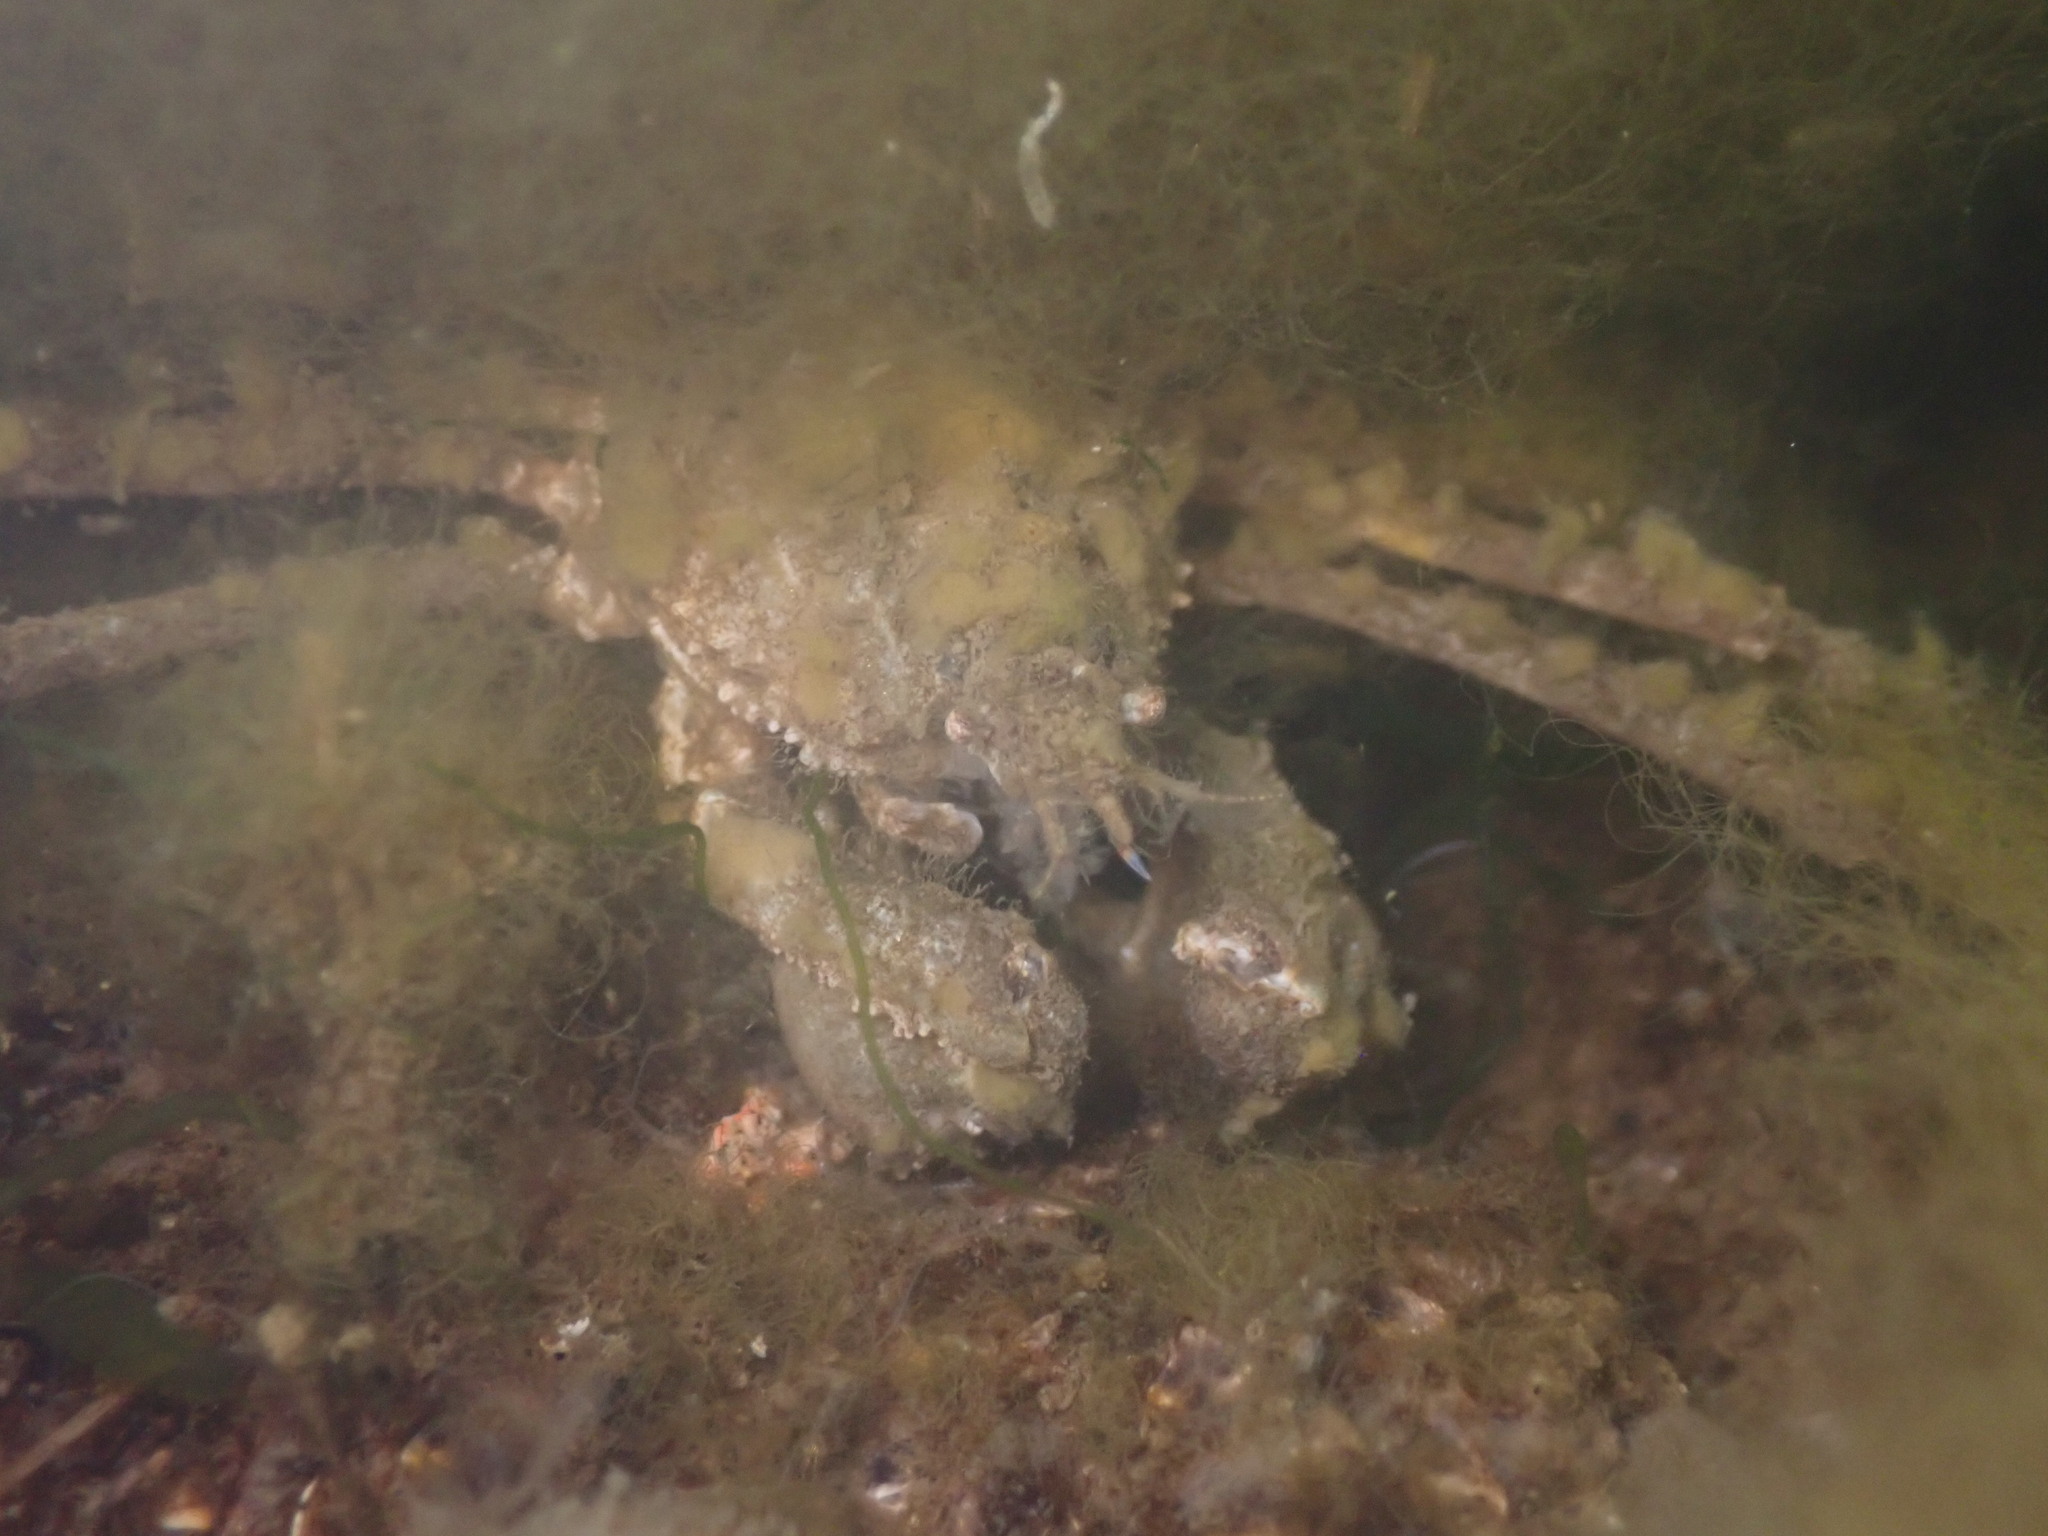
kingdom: Animalia
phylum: Arthropoda
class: Malacostraca
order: Decapoda
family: Inachoididae
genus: Pyromaia
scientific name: Pyromaia tuberculata
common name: Tuberculate pear crab
